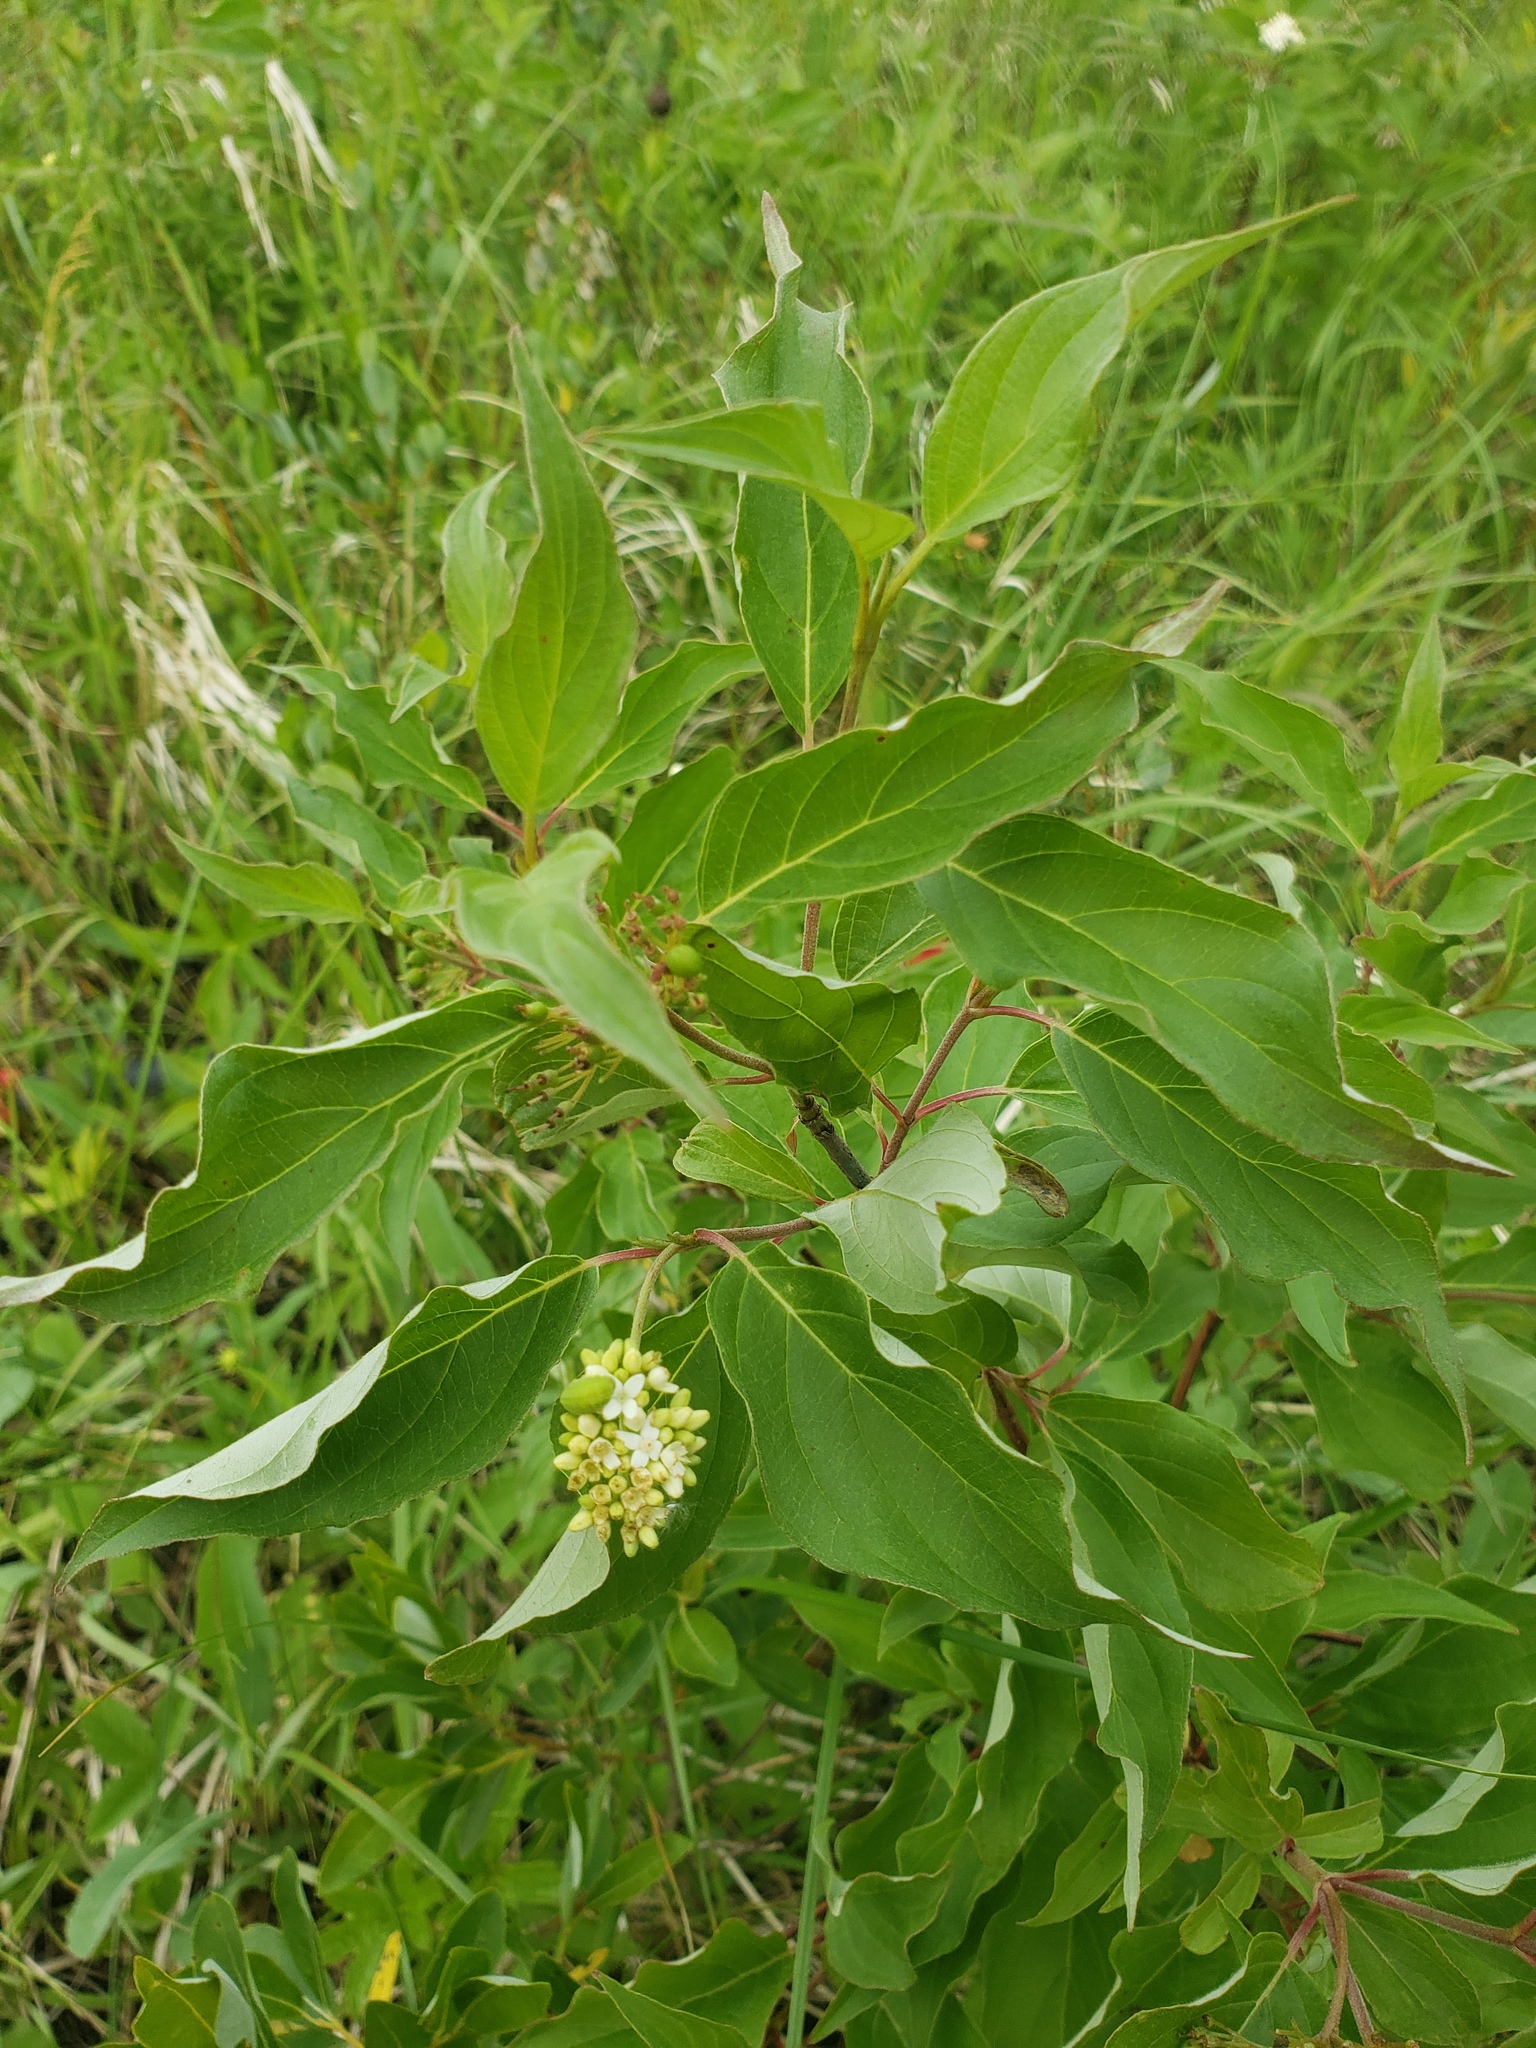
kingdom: Plantae
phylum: Tracheophyta
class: Magnoliopsida
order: Cornales
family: Cornaceae
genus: Cornus
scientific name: Cornus sericea
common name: Red-osier dogwood
